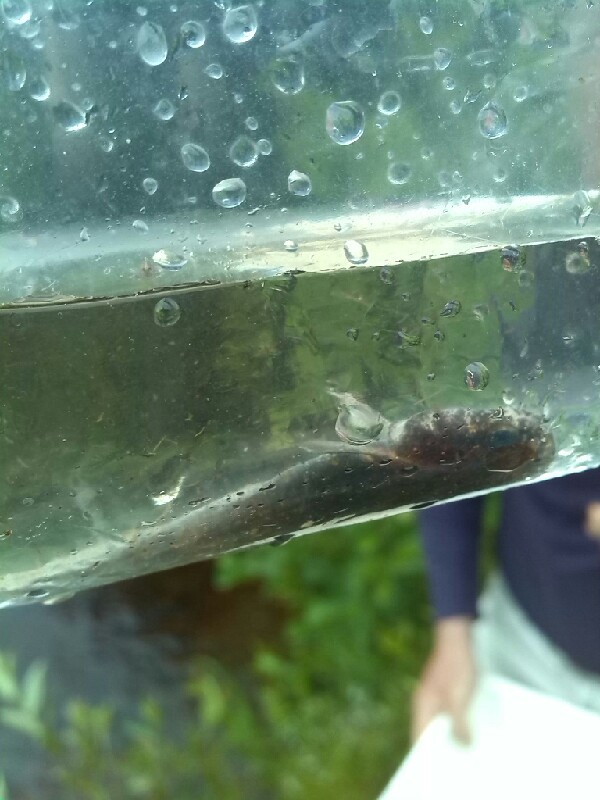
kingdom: Animalia
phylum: Chordata
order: Gadiformes
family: Lotidae
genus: Lota
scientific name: Lota lota
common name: Burbot
